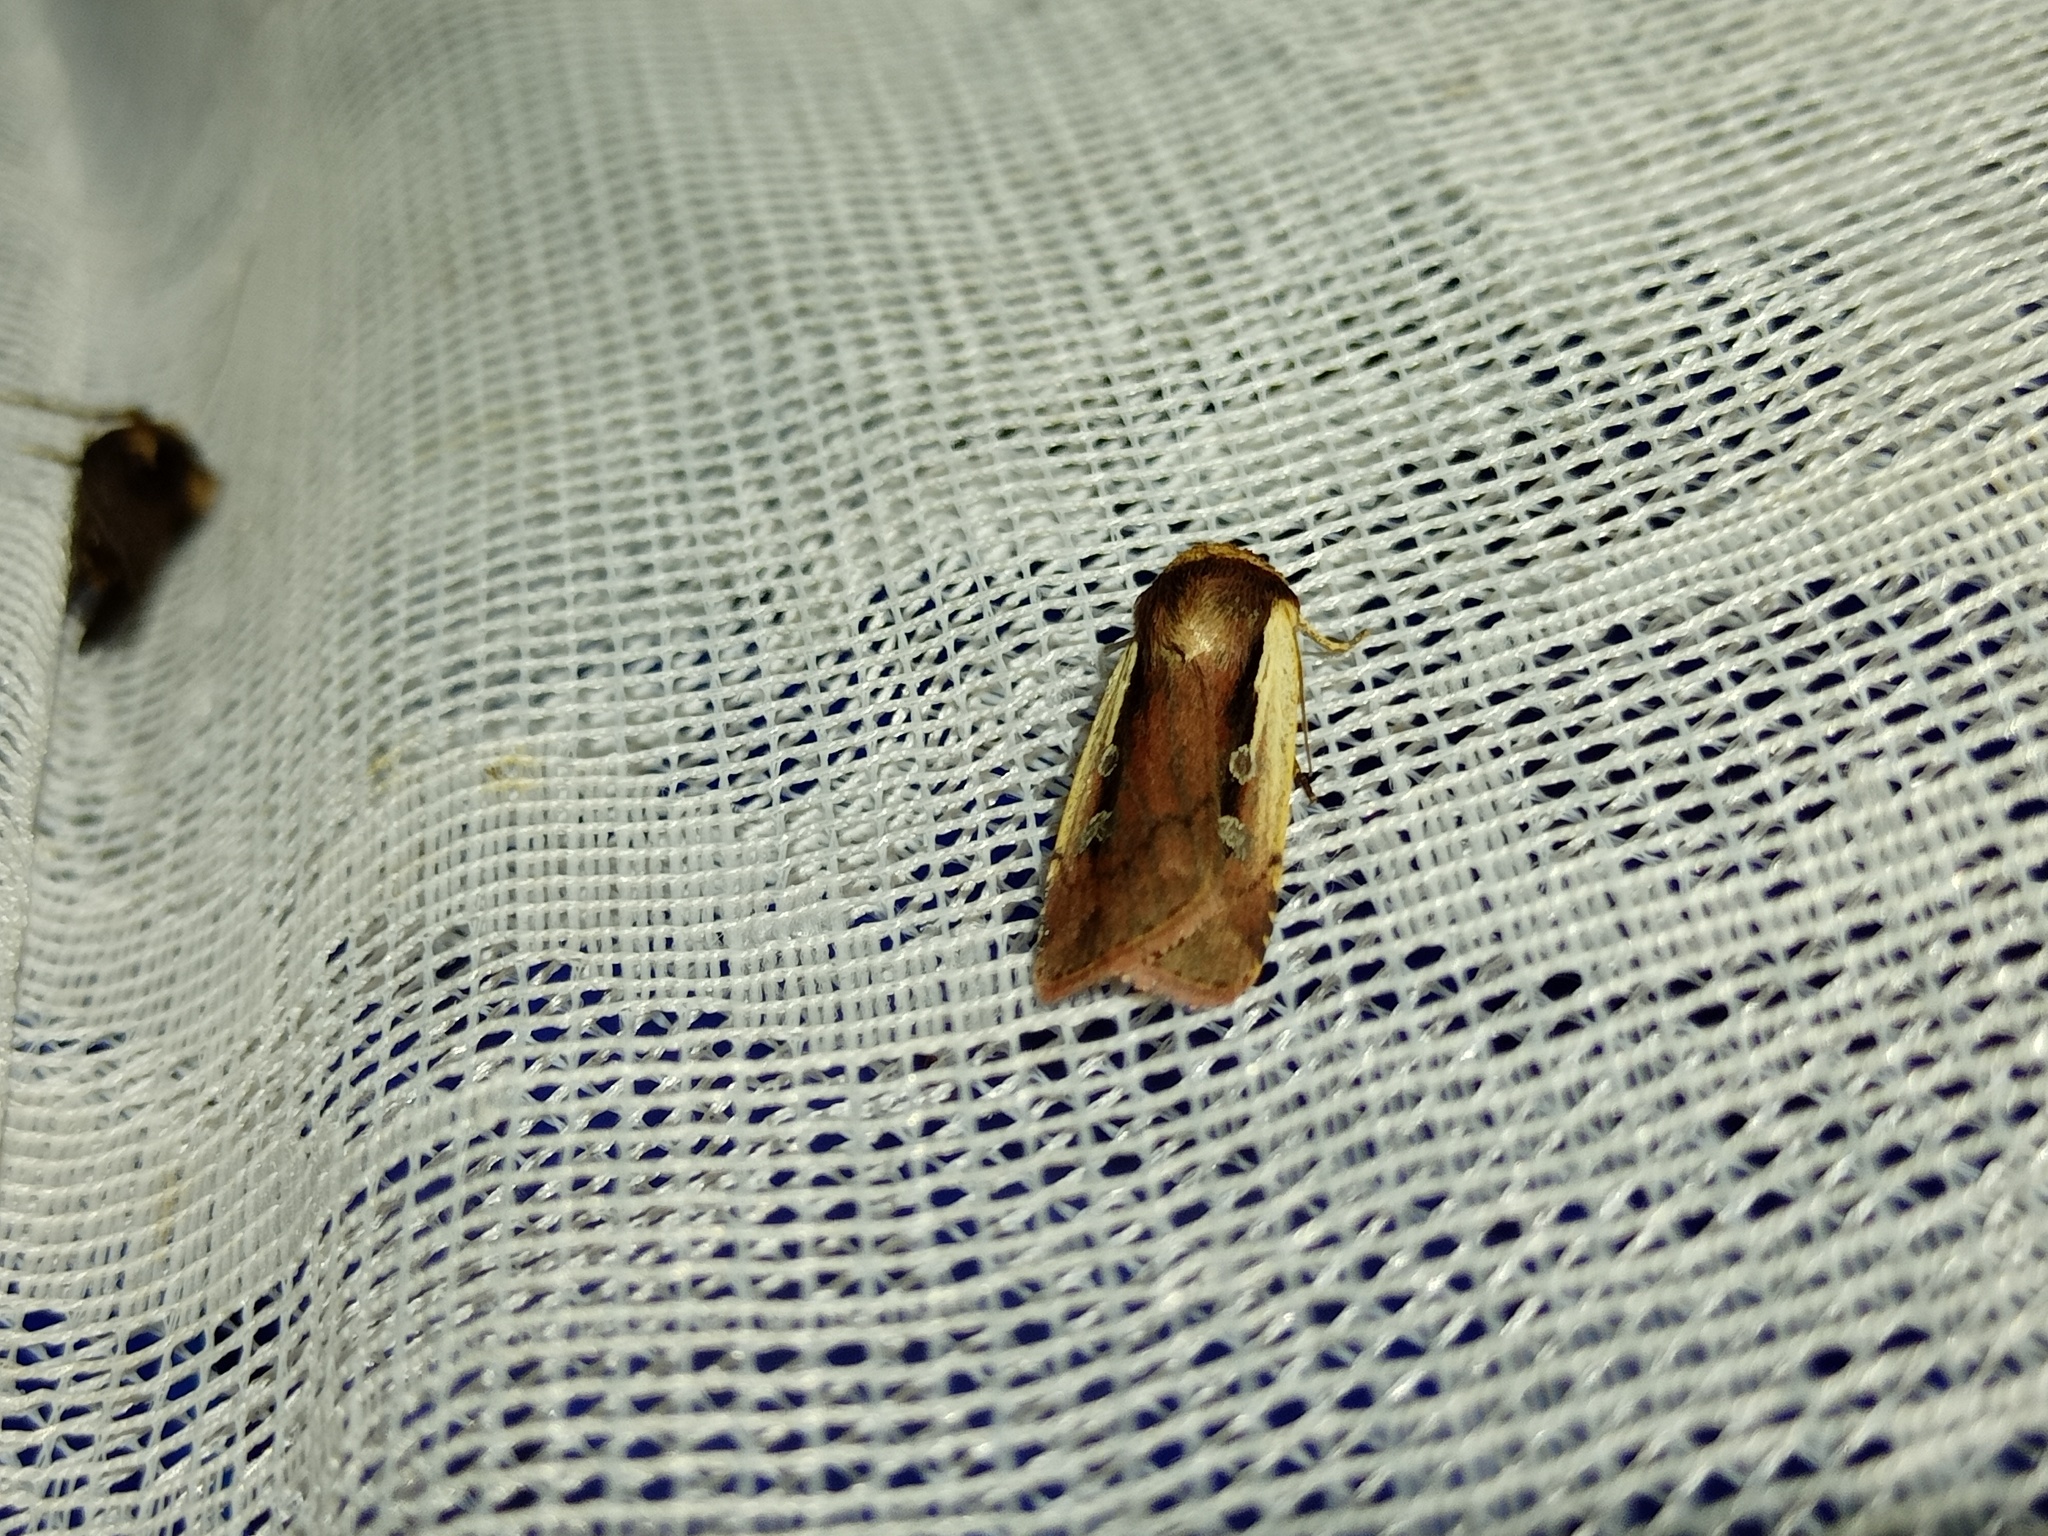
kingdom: Animalia
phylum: Arthropoda
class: Insecta
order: Lepidoptera
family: Noctuidae
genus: Ochropleura
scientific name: Ochropleura plecta
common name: Flame shoulder
